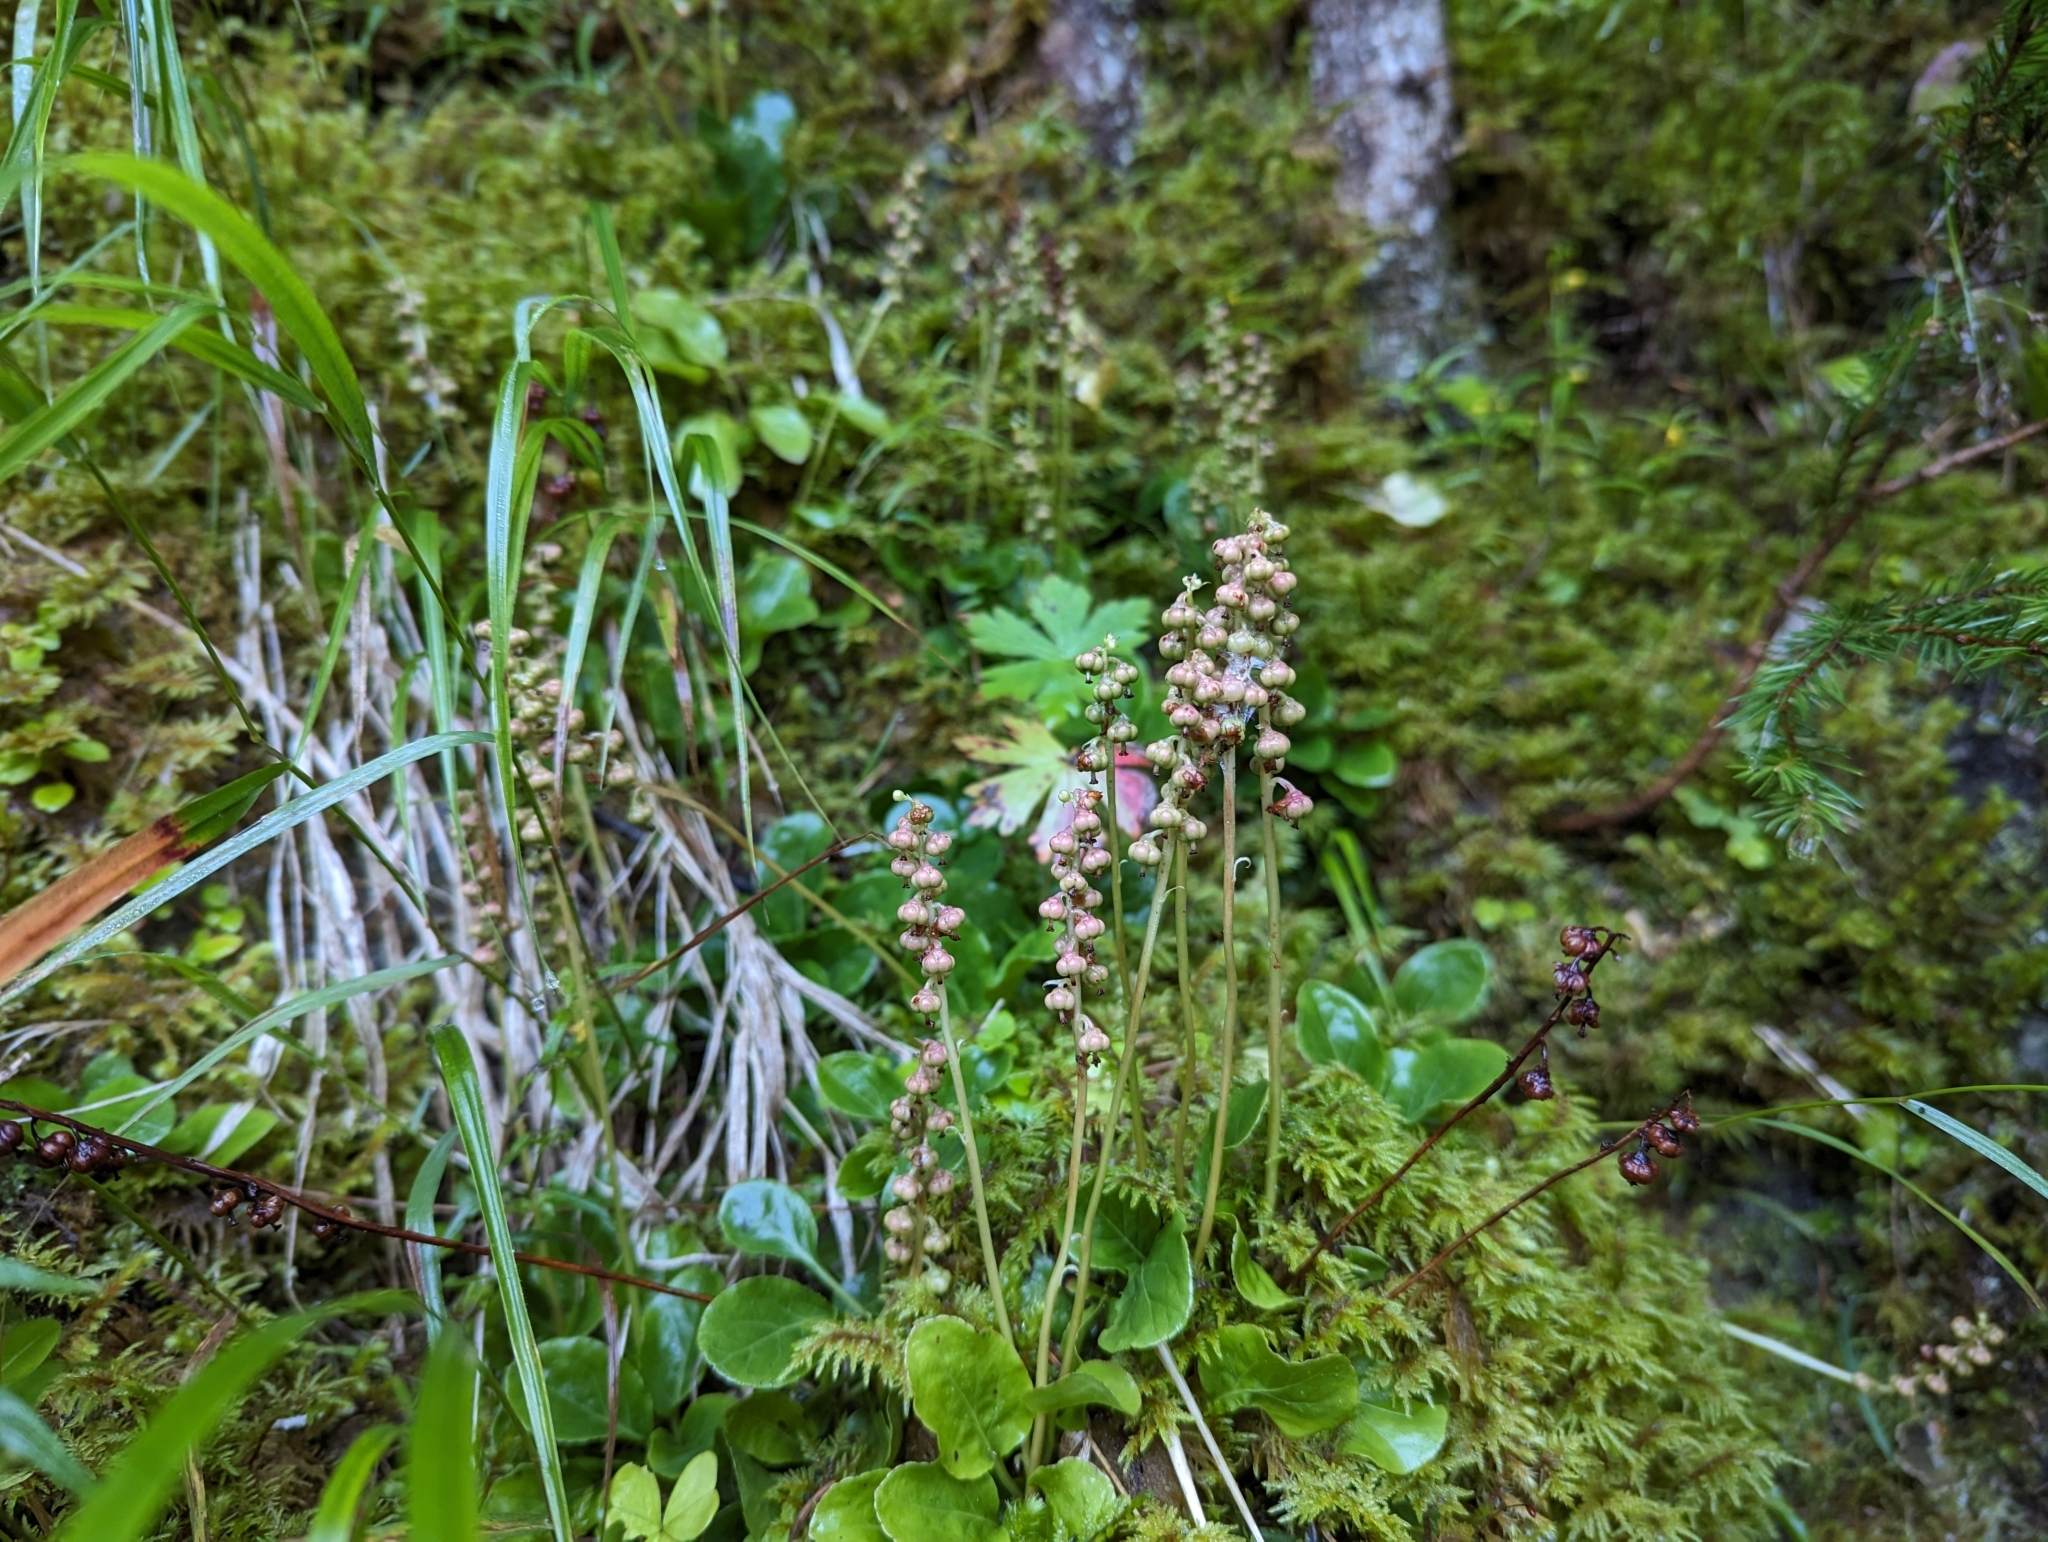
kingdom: Plantae
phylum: Tracheophyta
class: Magnoliopsida
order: Ericales
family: Ericaceae
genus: Pyrola
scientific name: Pyrola minor
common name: Common wintergreen
